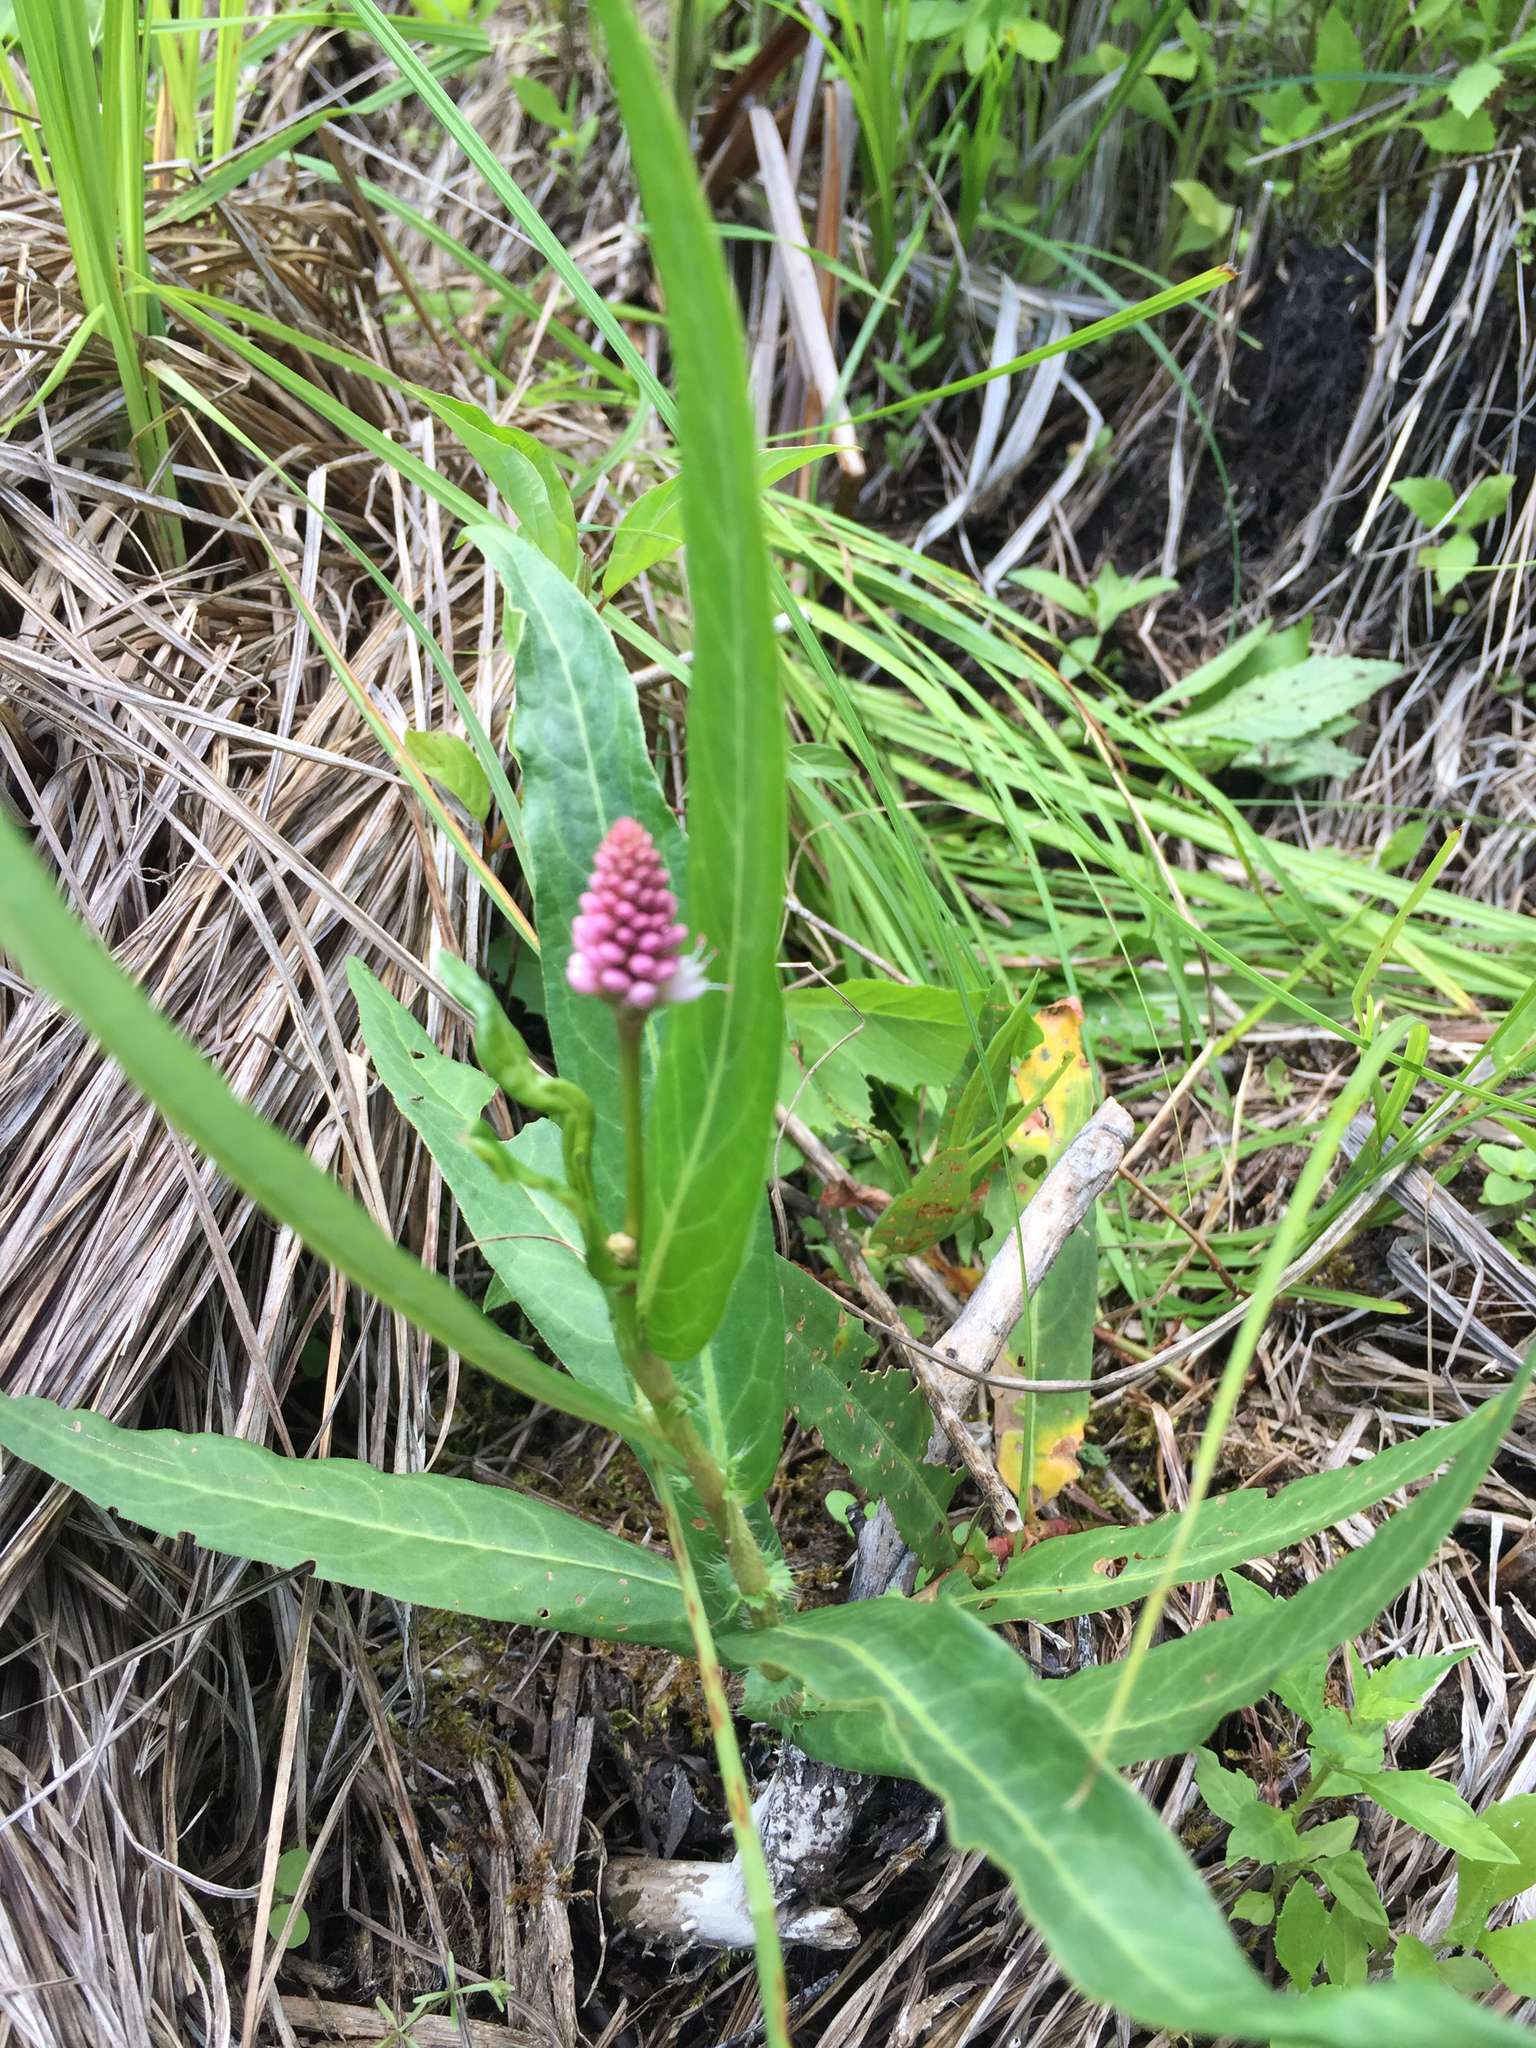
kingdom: Plantae
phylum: Tracheophyta
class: Magnoliopsida
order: Caryophyllales
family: Polygonaceae
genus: Persicaria
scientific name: Persicaria amphibia
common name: Amphibious bistort
